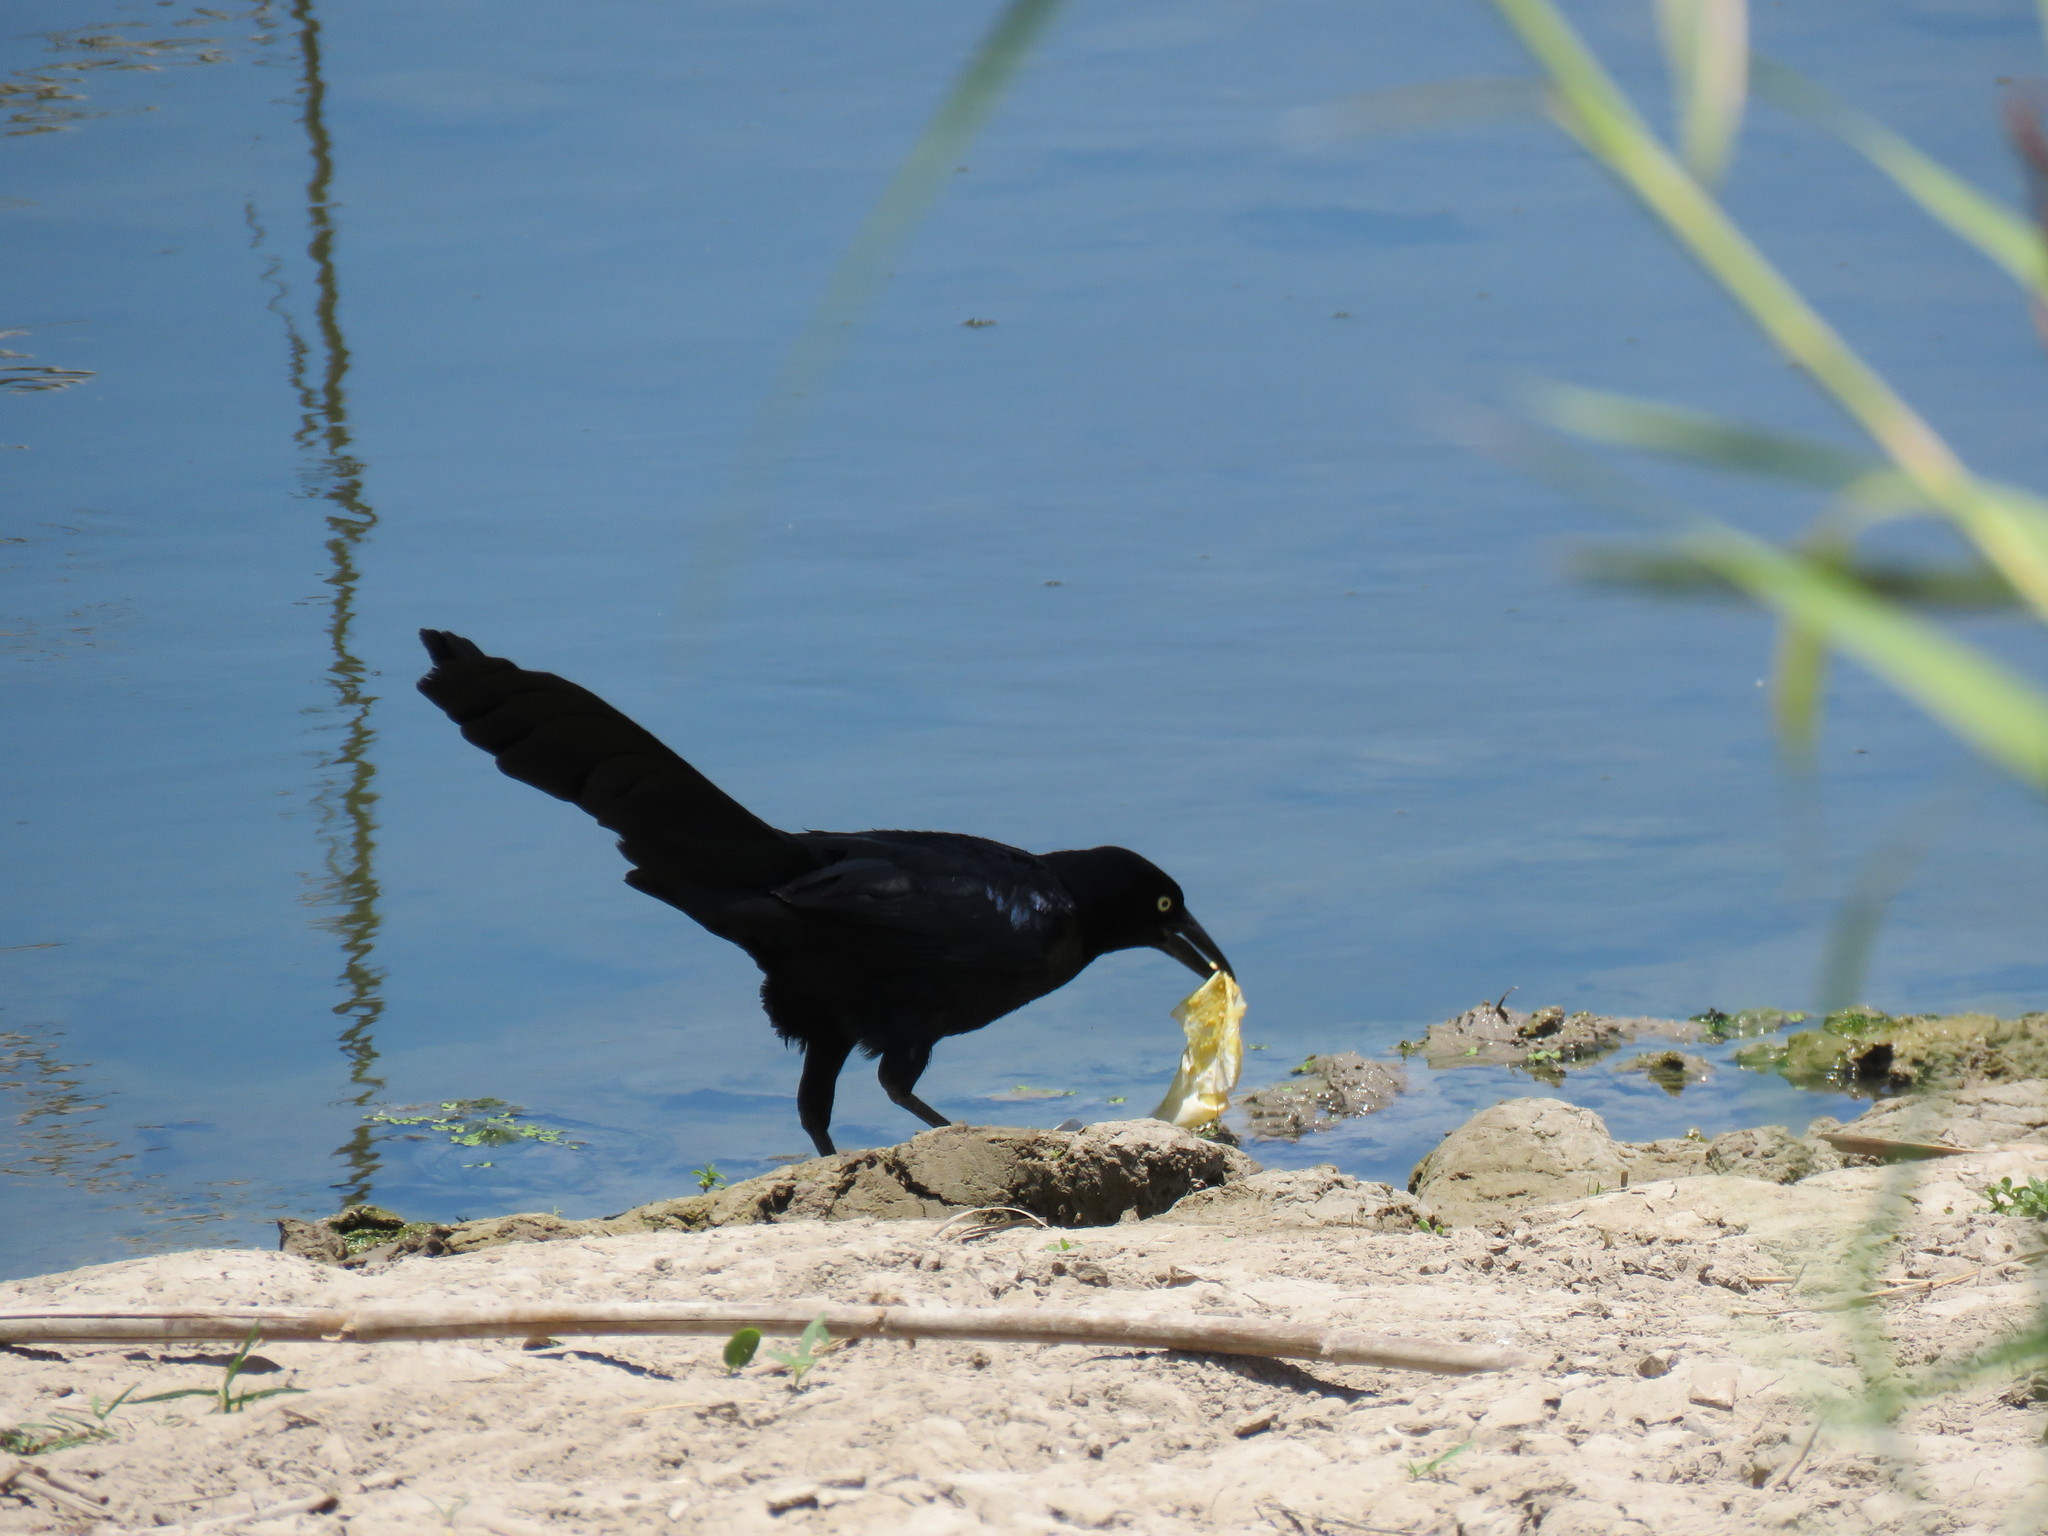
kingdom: Animalia
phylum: Chordata
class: Aves
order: Passeriformes
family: Icteridae
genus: Quiscalus
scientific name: Quiscalus mexicanus
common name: Great-tailed grackle
